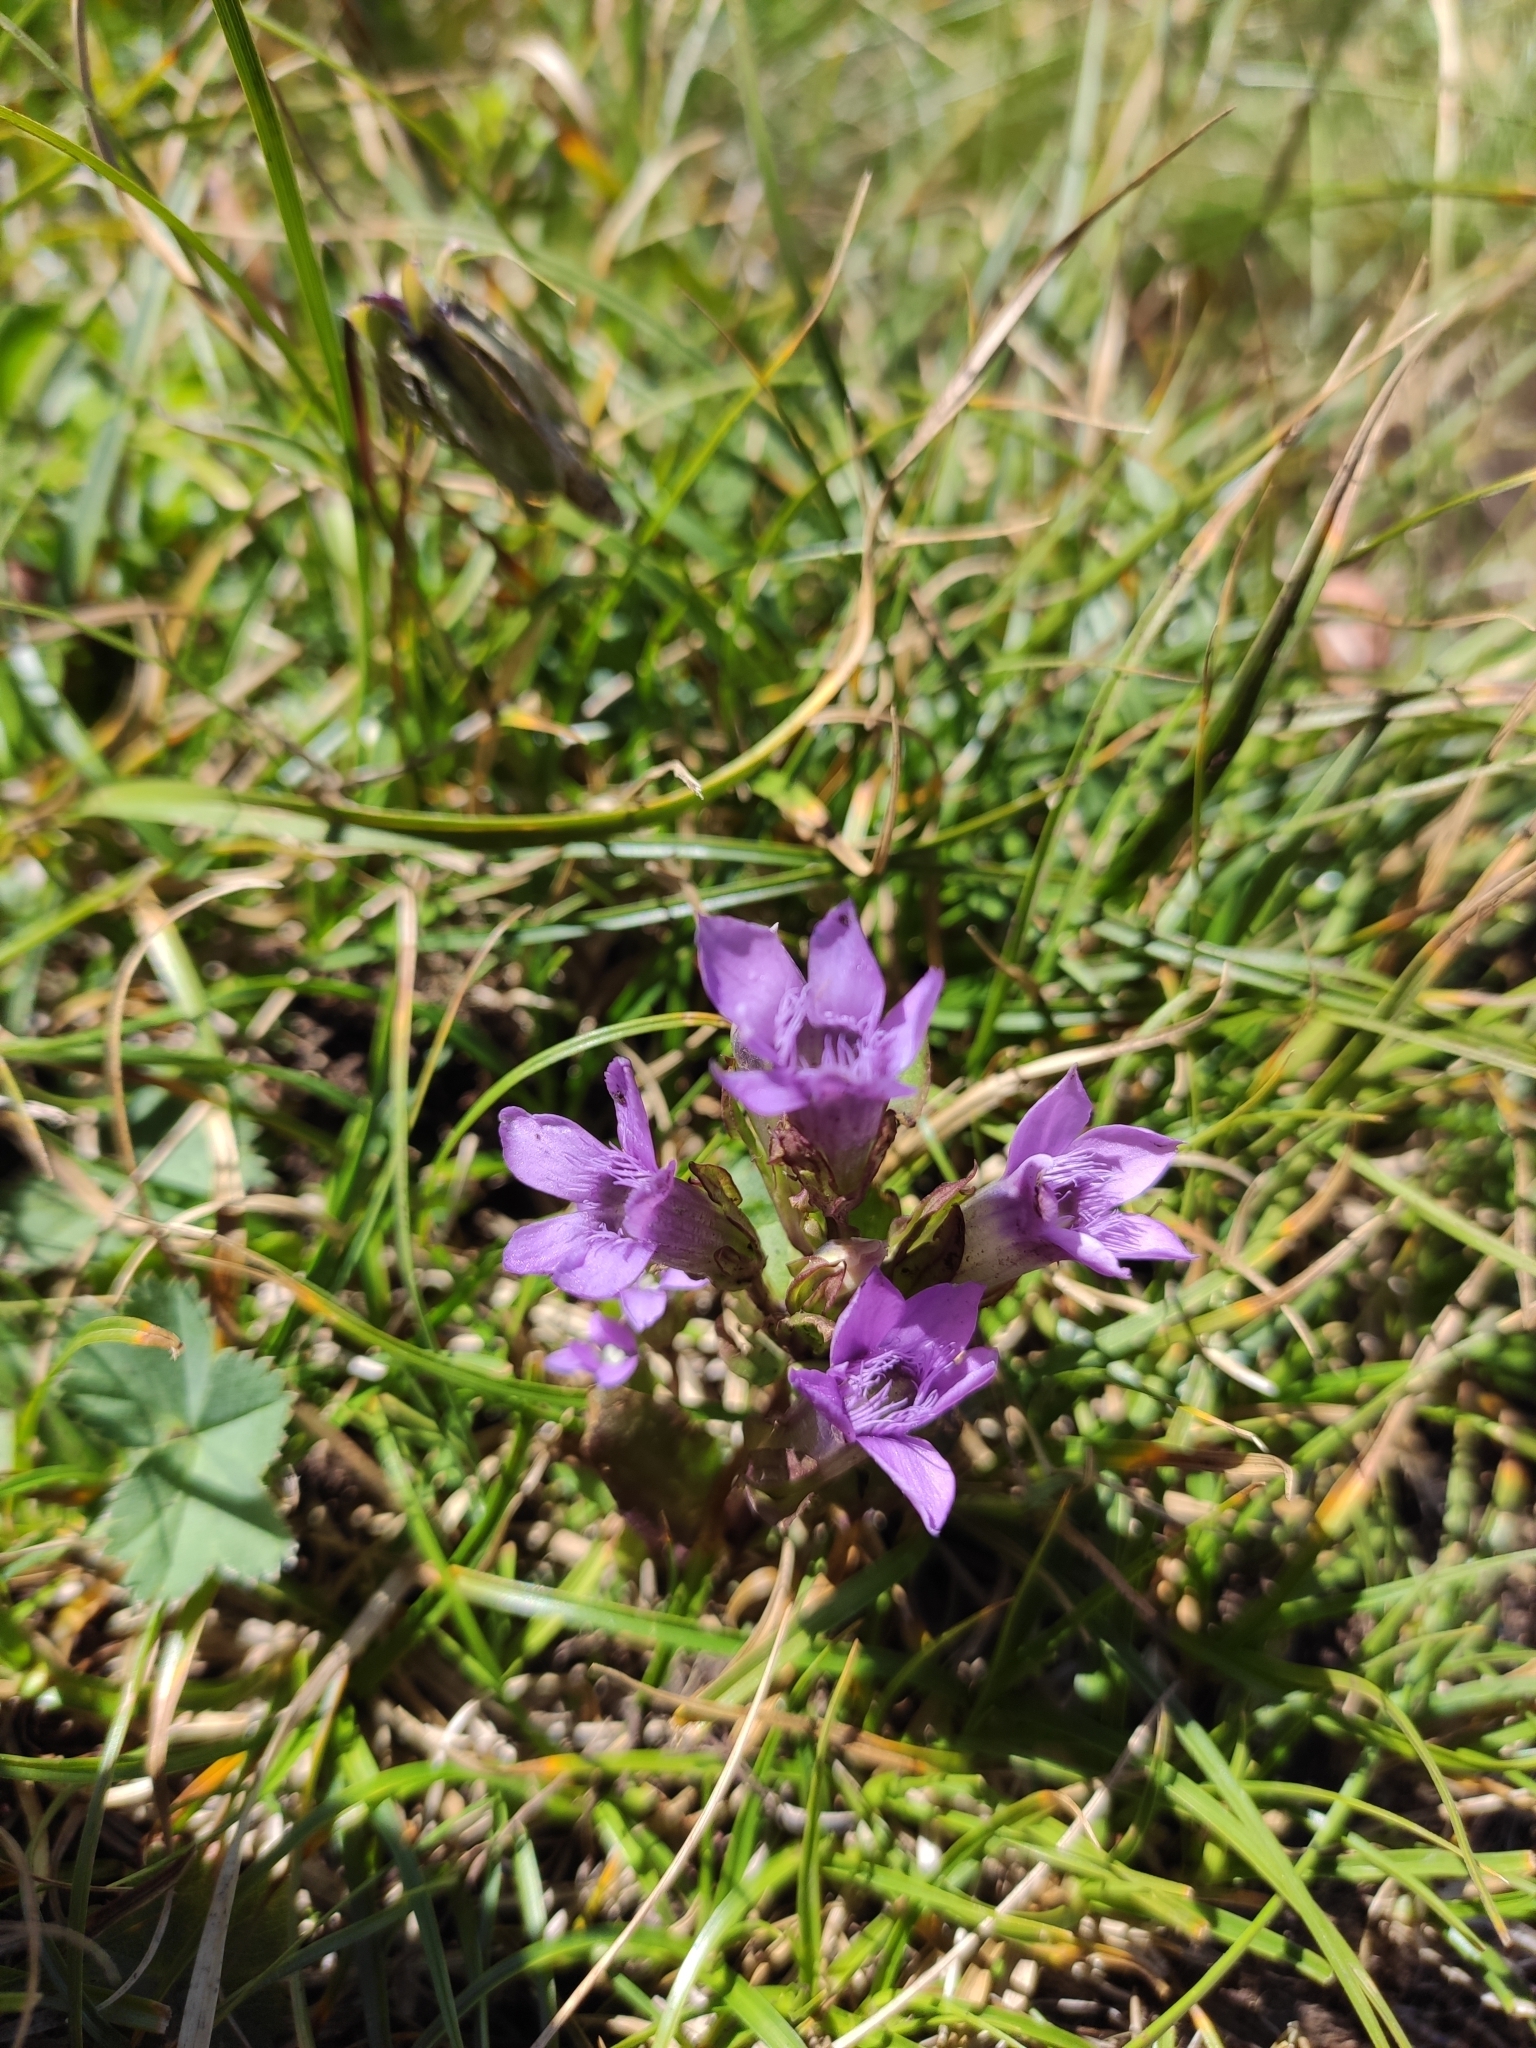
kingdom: Plantae
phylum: Tracheophyta
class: Magnoliopsida
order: Gentianales
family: Gentianaceae
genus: Gentianella
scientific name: Gentianella biebersteinii
